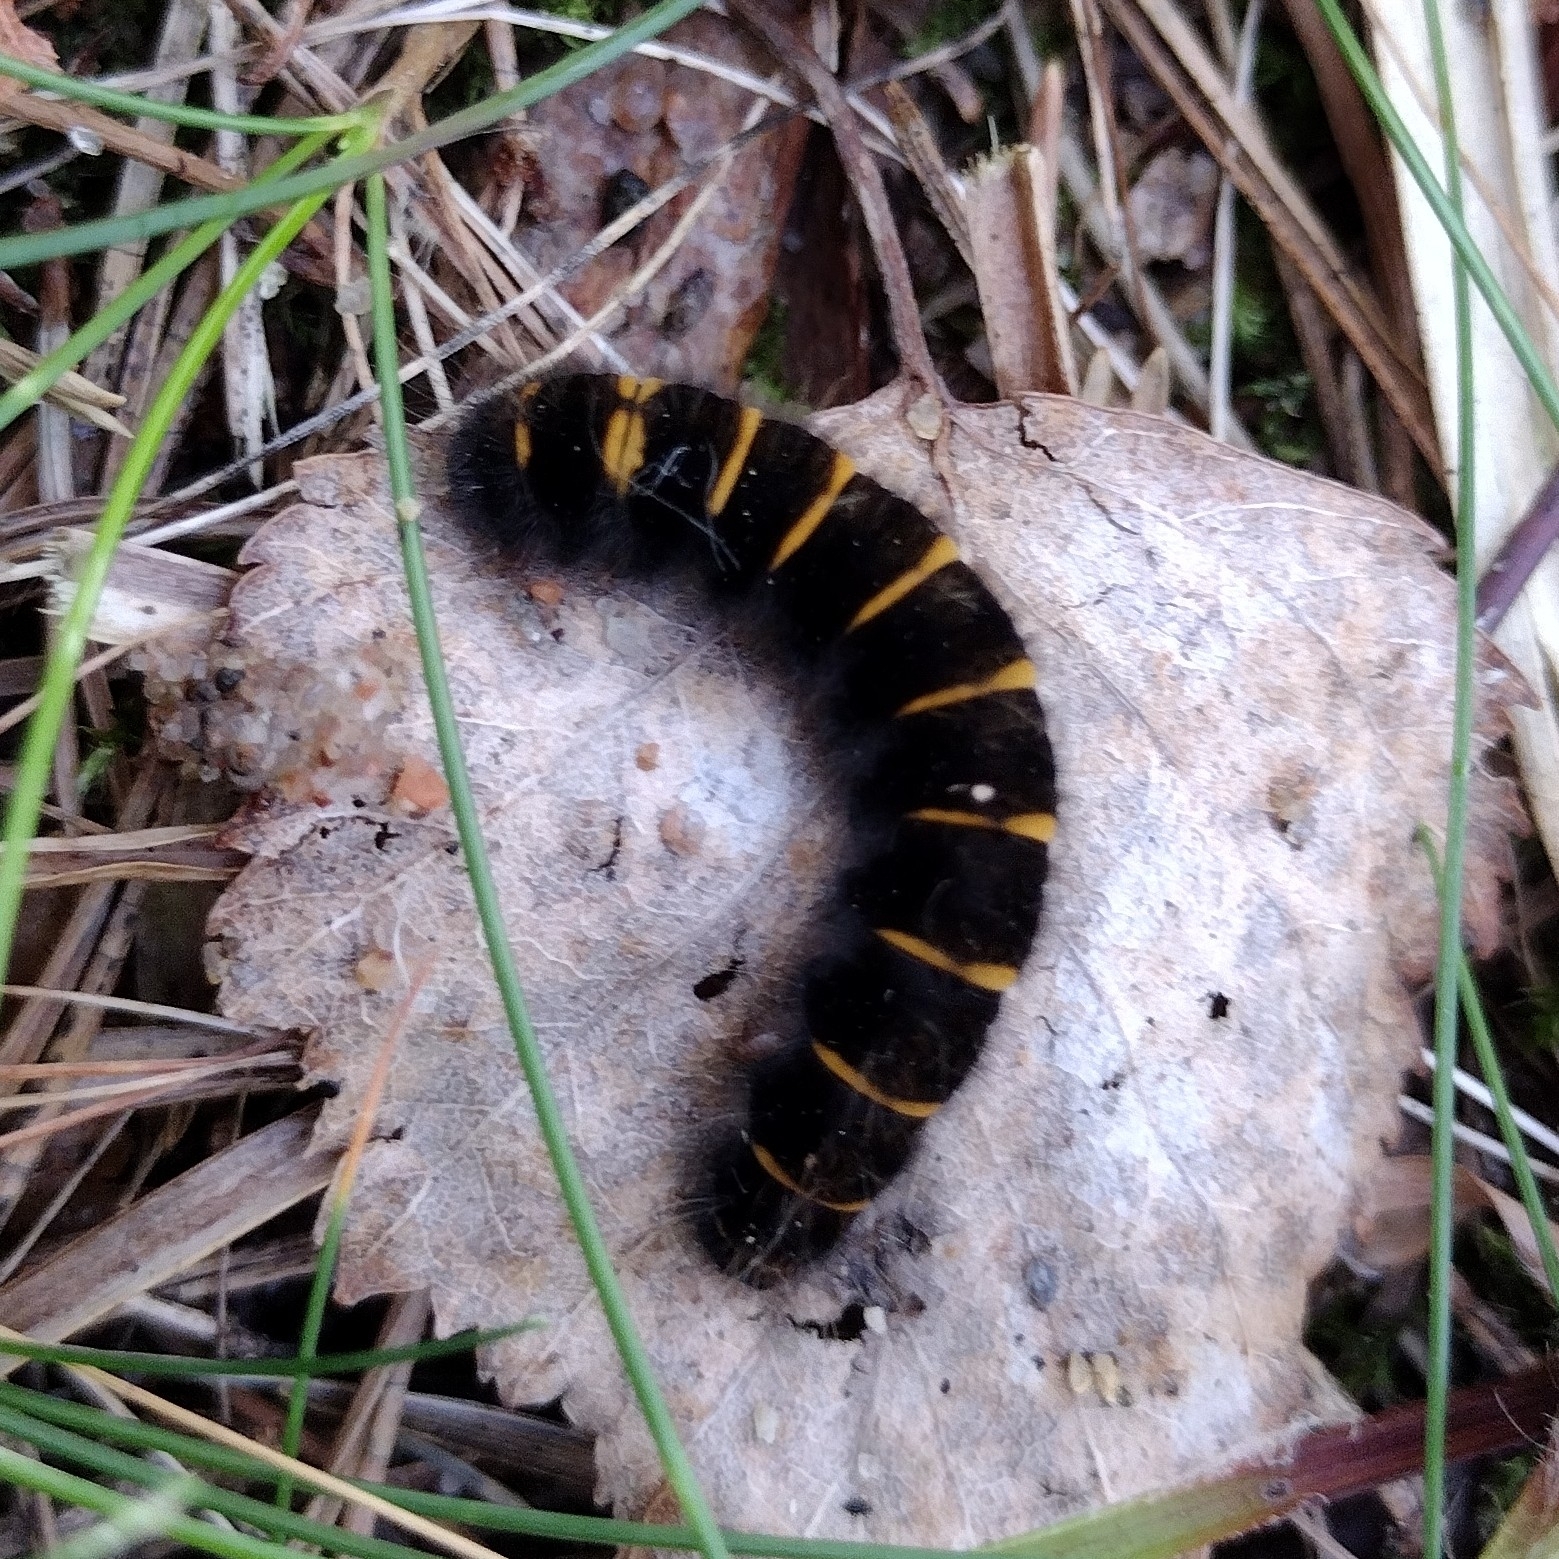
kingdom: Animalia
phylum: Arthropoda
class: Insecta
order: Lepidoptera
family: Lasiocampidae
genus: Macrothylacia
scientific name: Macrothylacia rubi
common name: Fox moth
